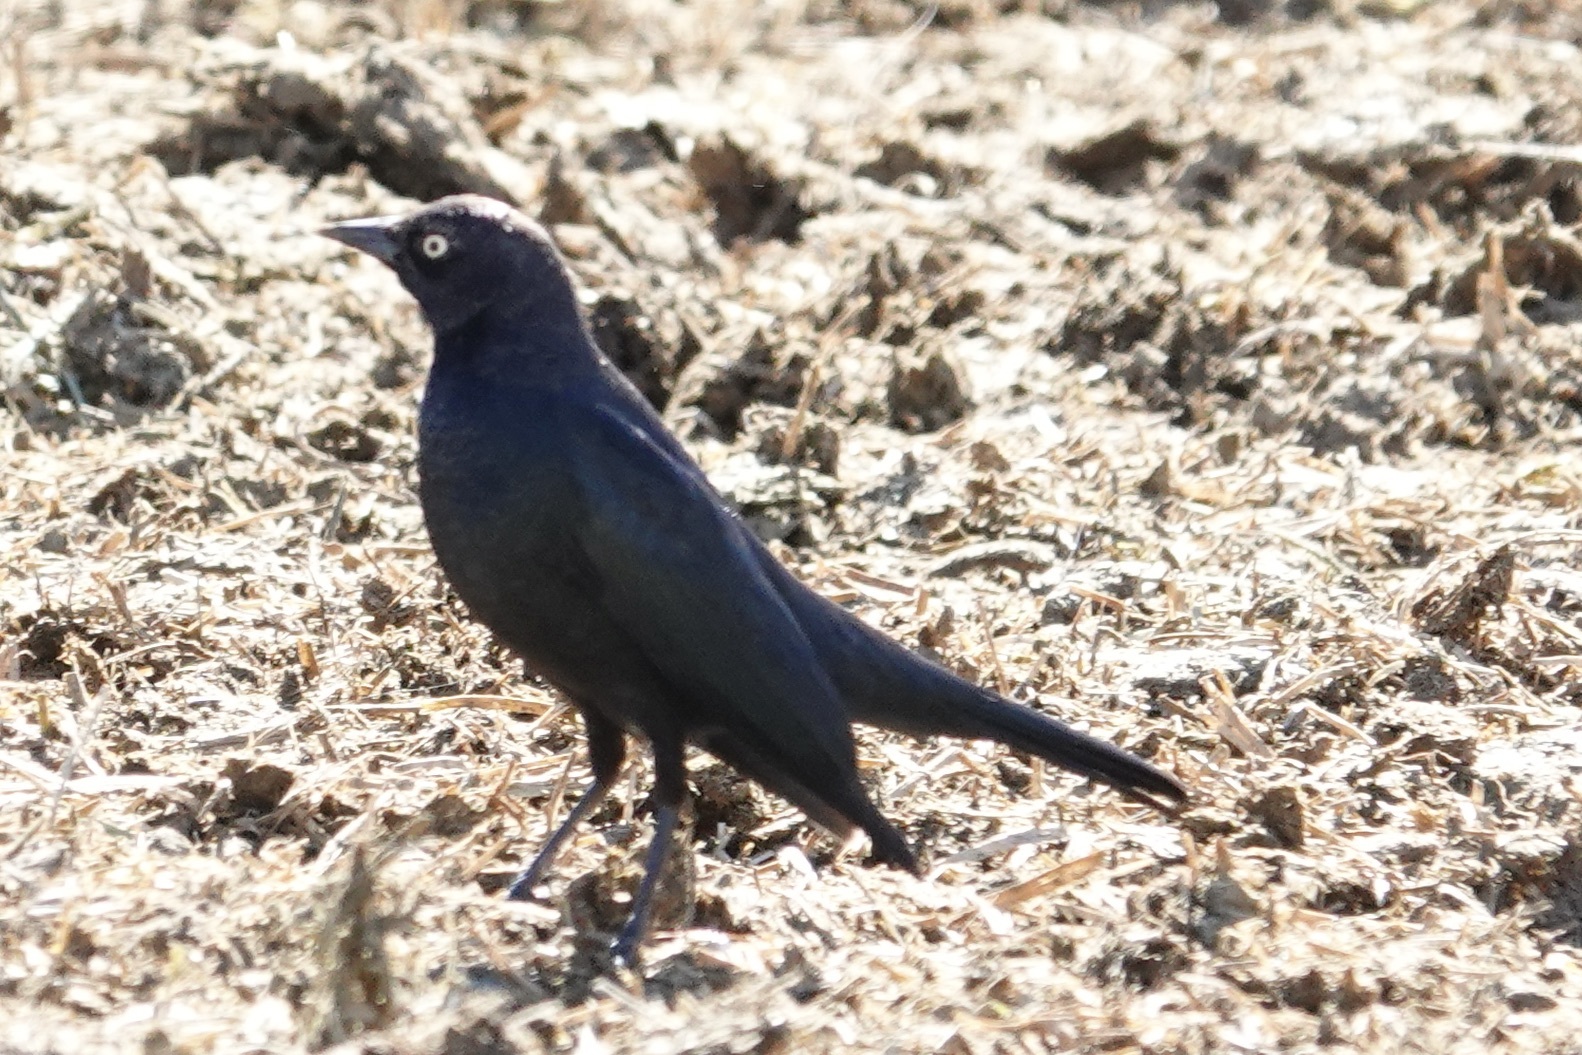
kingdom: Animalia
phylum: Chordata
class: Aves
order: Passeriformes
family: Icteridae
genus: Euphagus
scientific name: Euphagus cyanocephalus
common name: Brewer's blackbird
